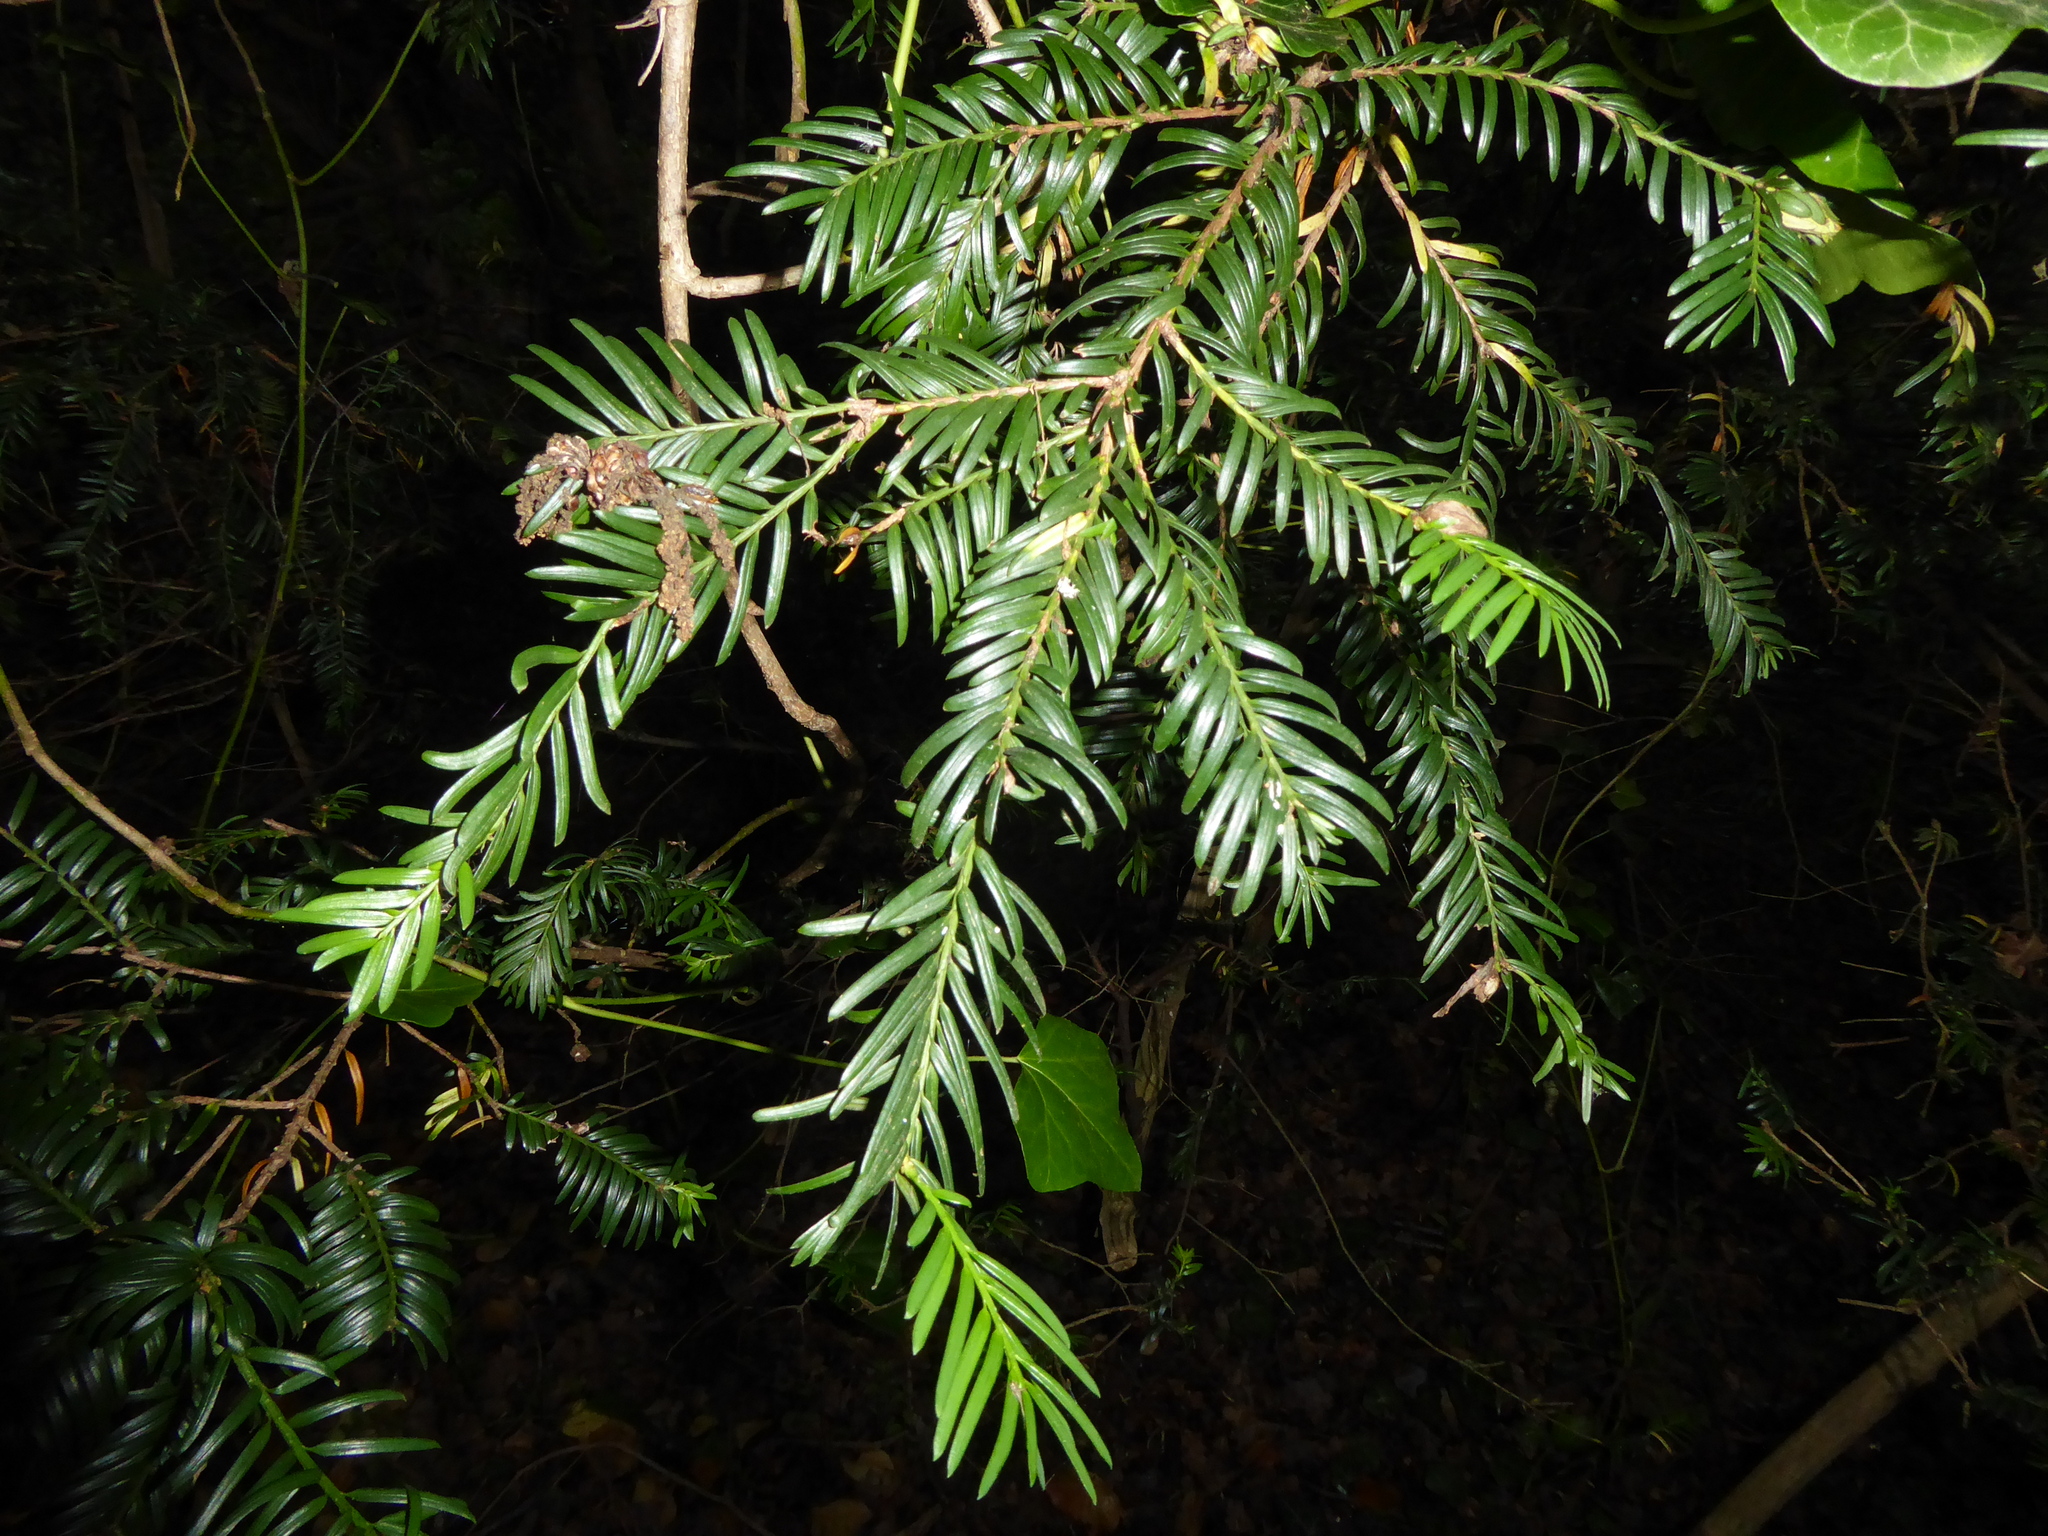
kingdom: Plantae
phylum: Tracheophyta
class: Pinopsida
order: Pinales
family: Taxaceae
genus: Taxus
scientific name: Taxus baccata
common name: Yew
